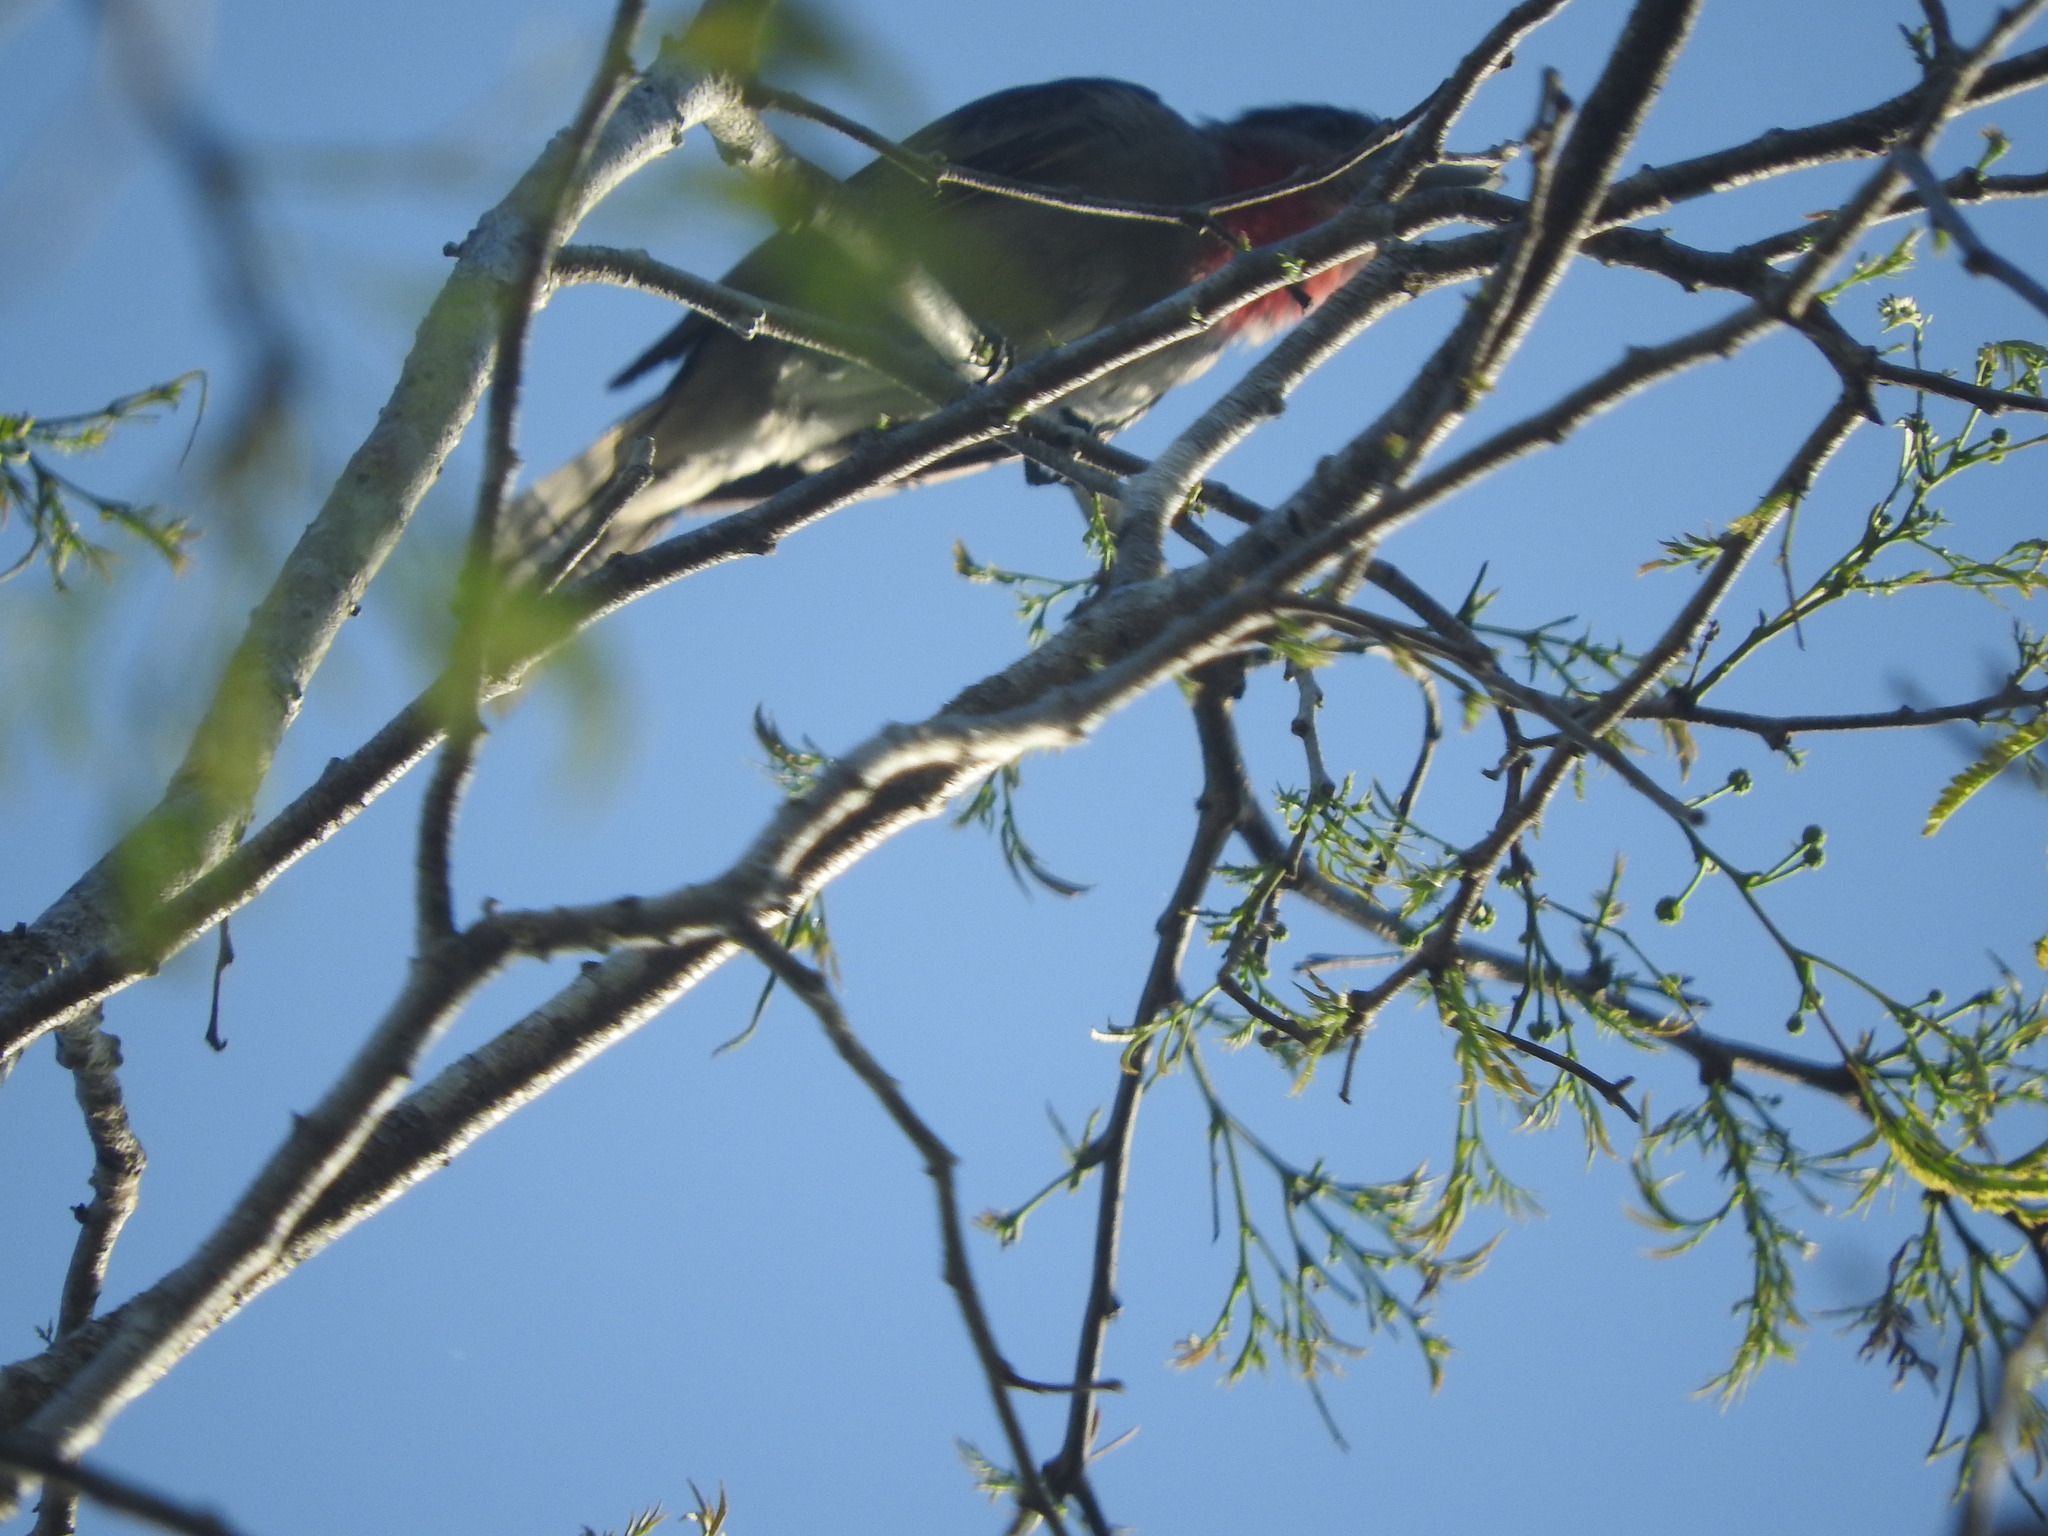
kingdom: Animalia
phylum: Chordata
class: Aves
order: Passeriformes
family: Cotingidae
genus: Pachyramphus
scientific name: Pachyramphus aglaiae
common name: Rose-throated becard
